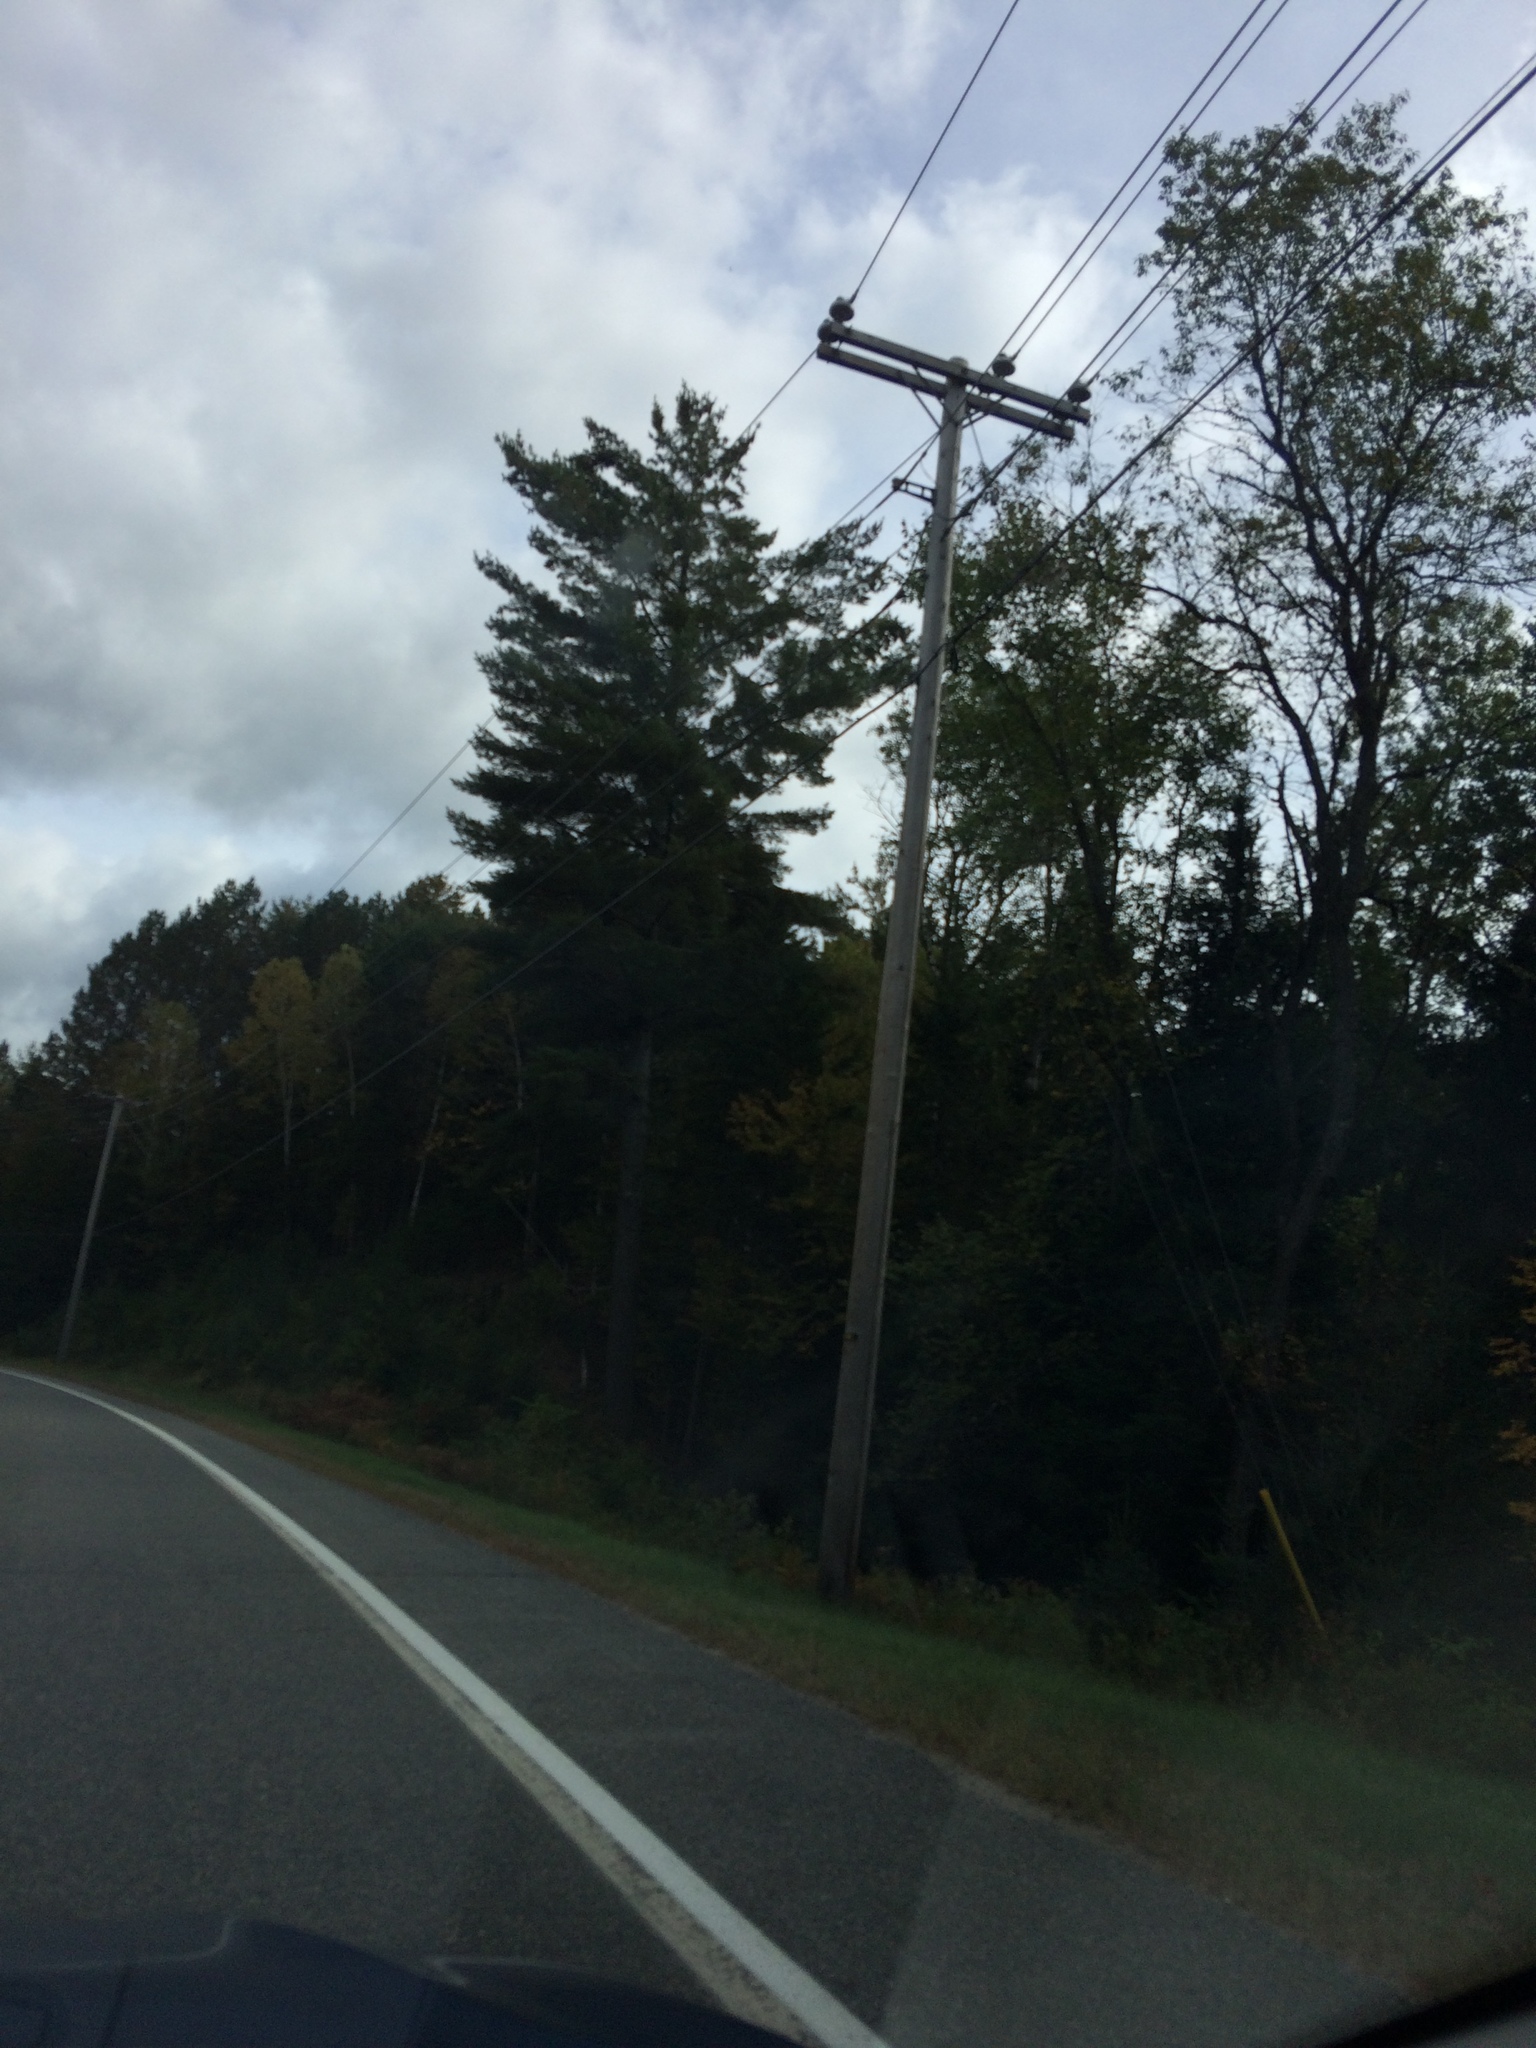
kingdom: Plantae
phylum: Tracheophyta
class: Pinopsida
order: Pinales
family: Pinaceae
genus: Pinus
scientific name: Pinus strobus
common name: Weymouth pine
